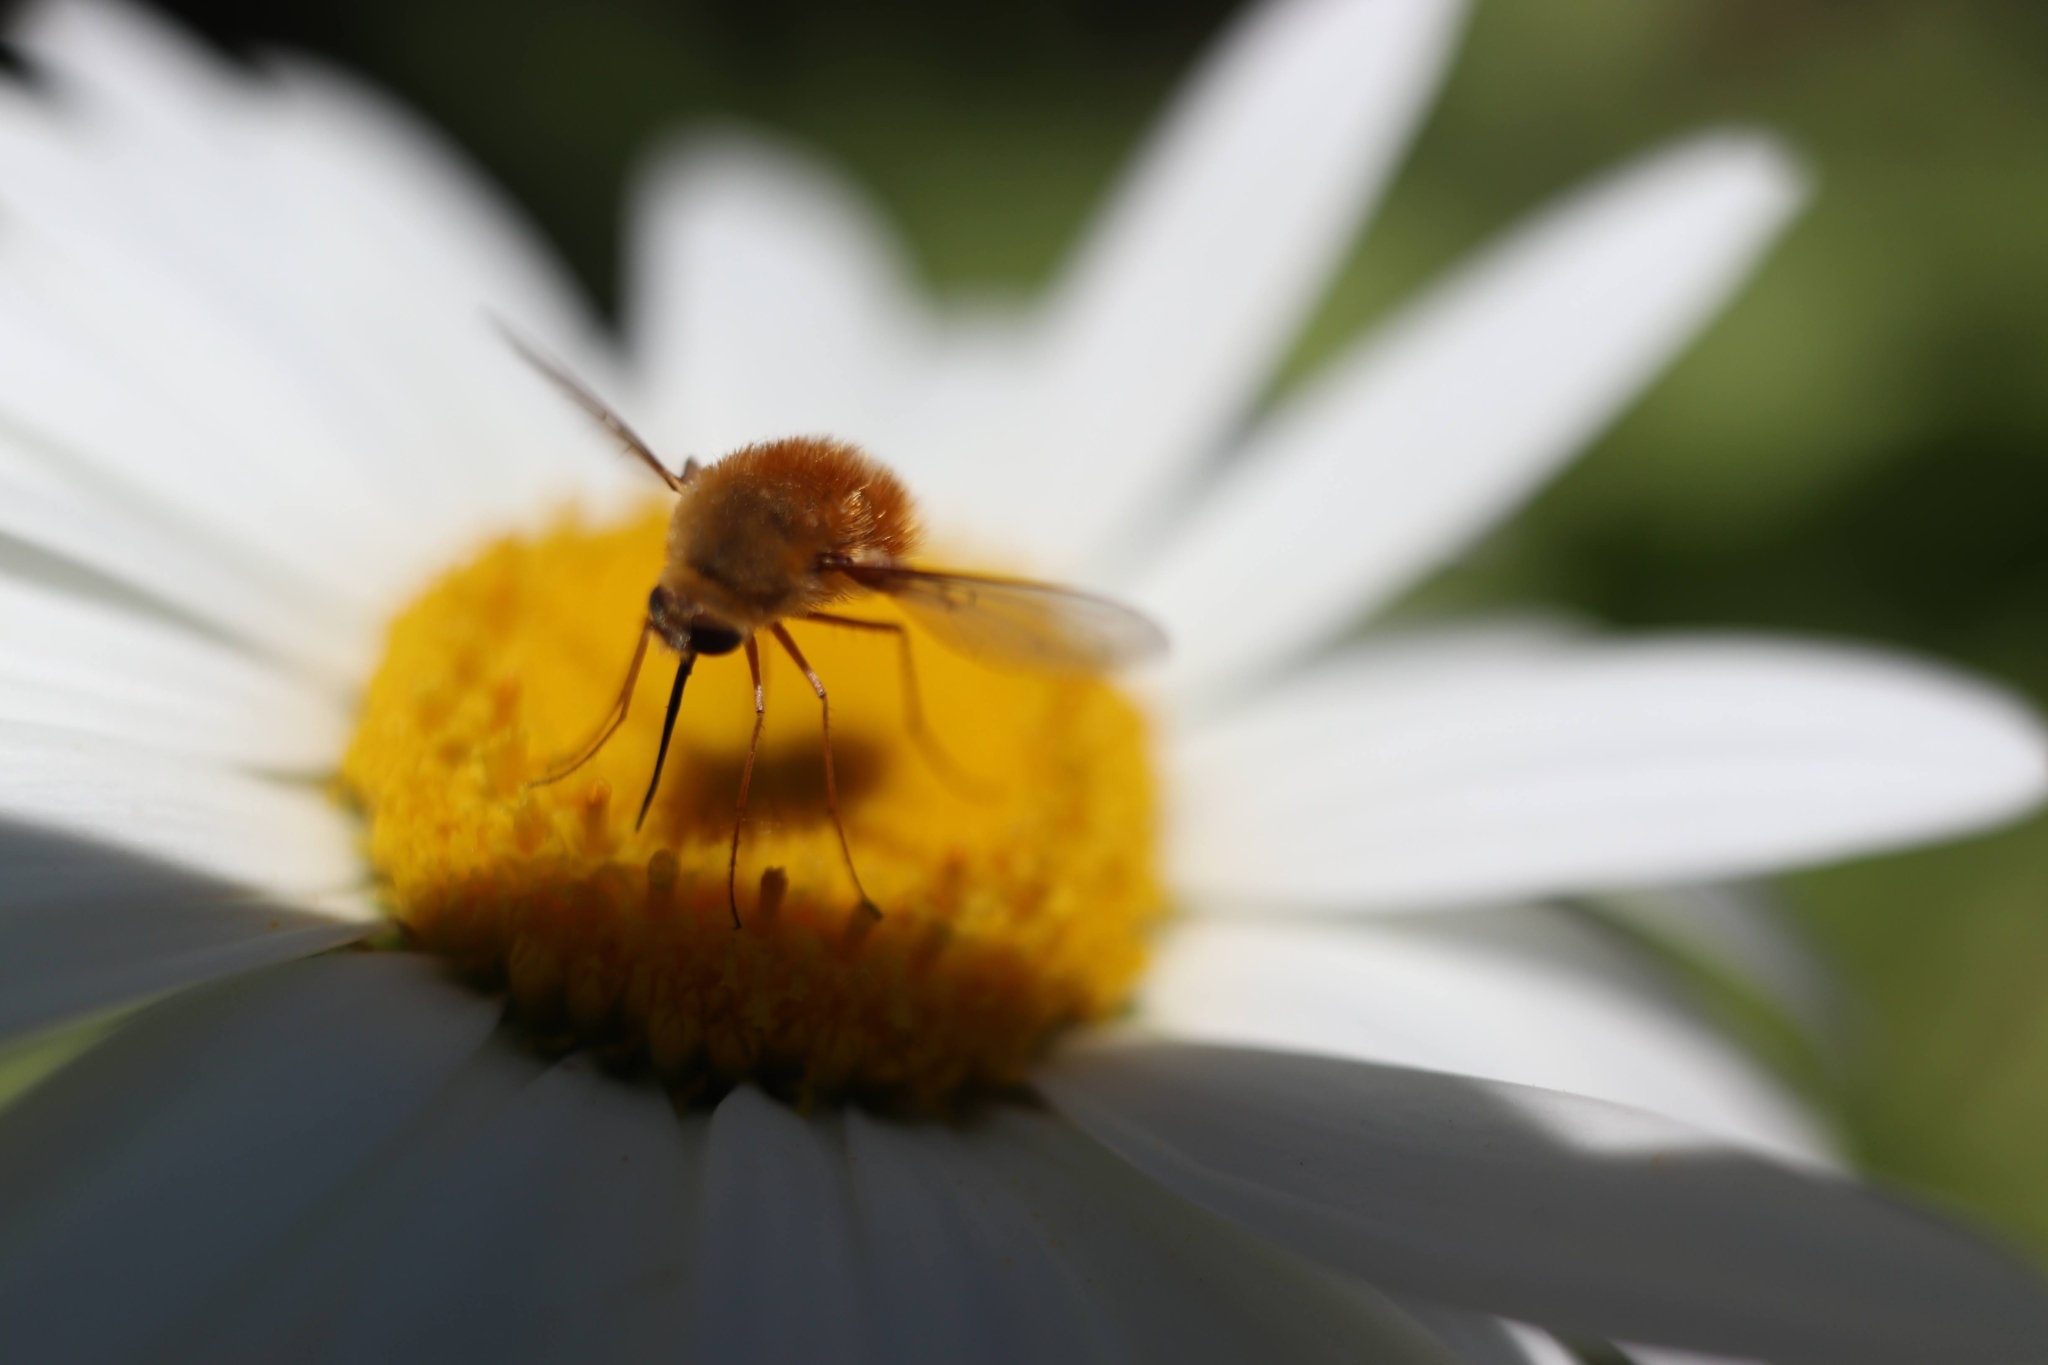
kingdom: Animalia
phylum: Arthropoda
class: Insecta
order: Diptera
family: Bombyliidae
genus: Bombylius
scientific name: Bombylius comanche
